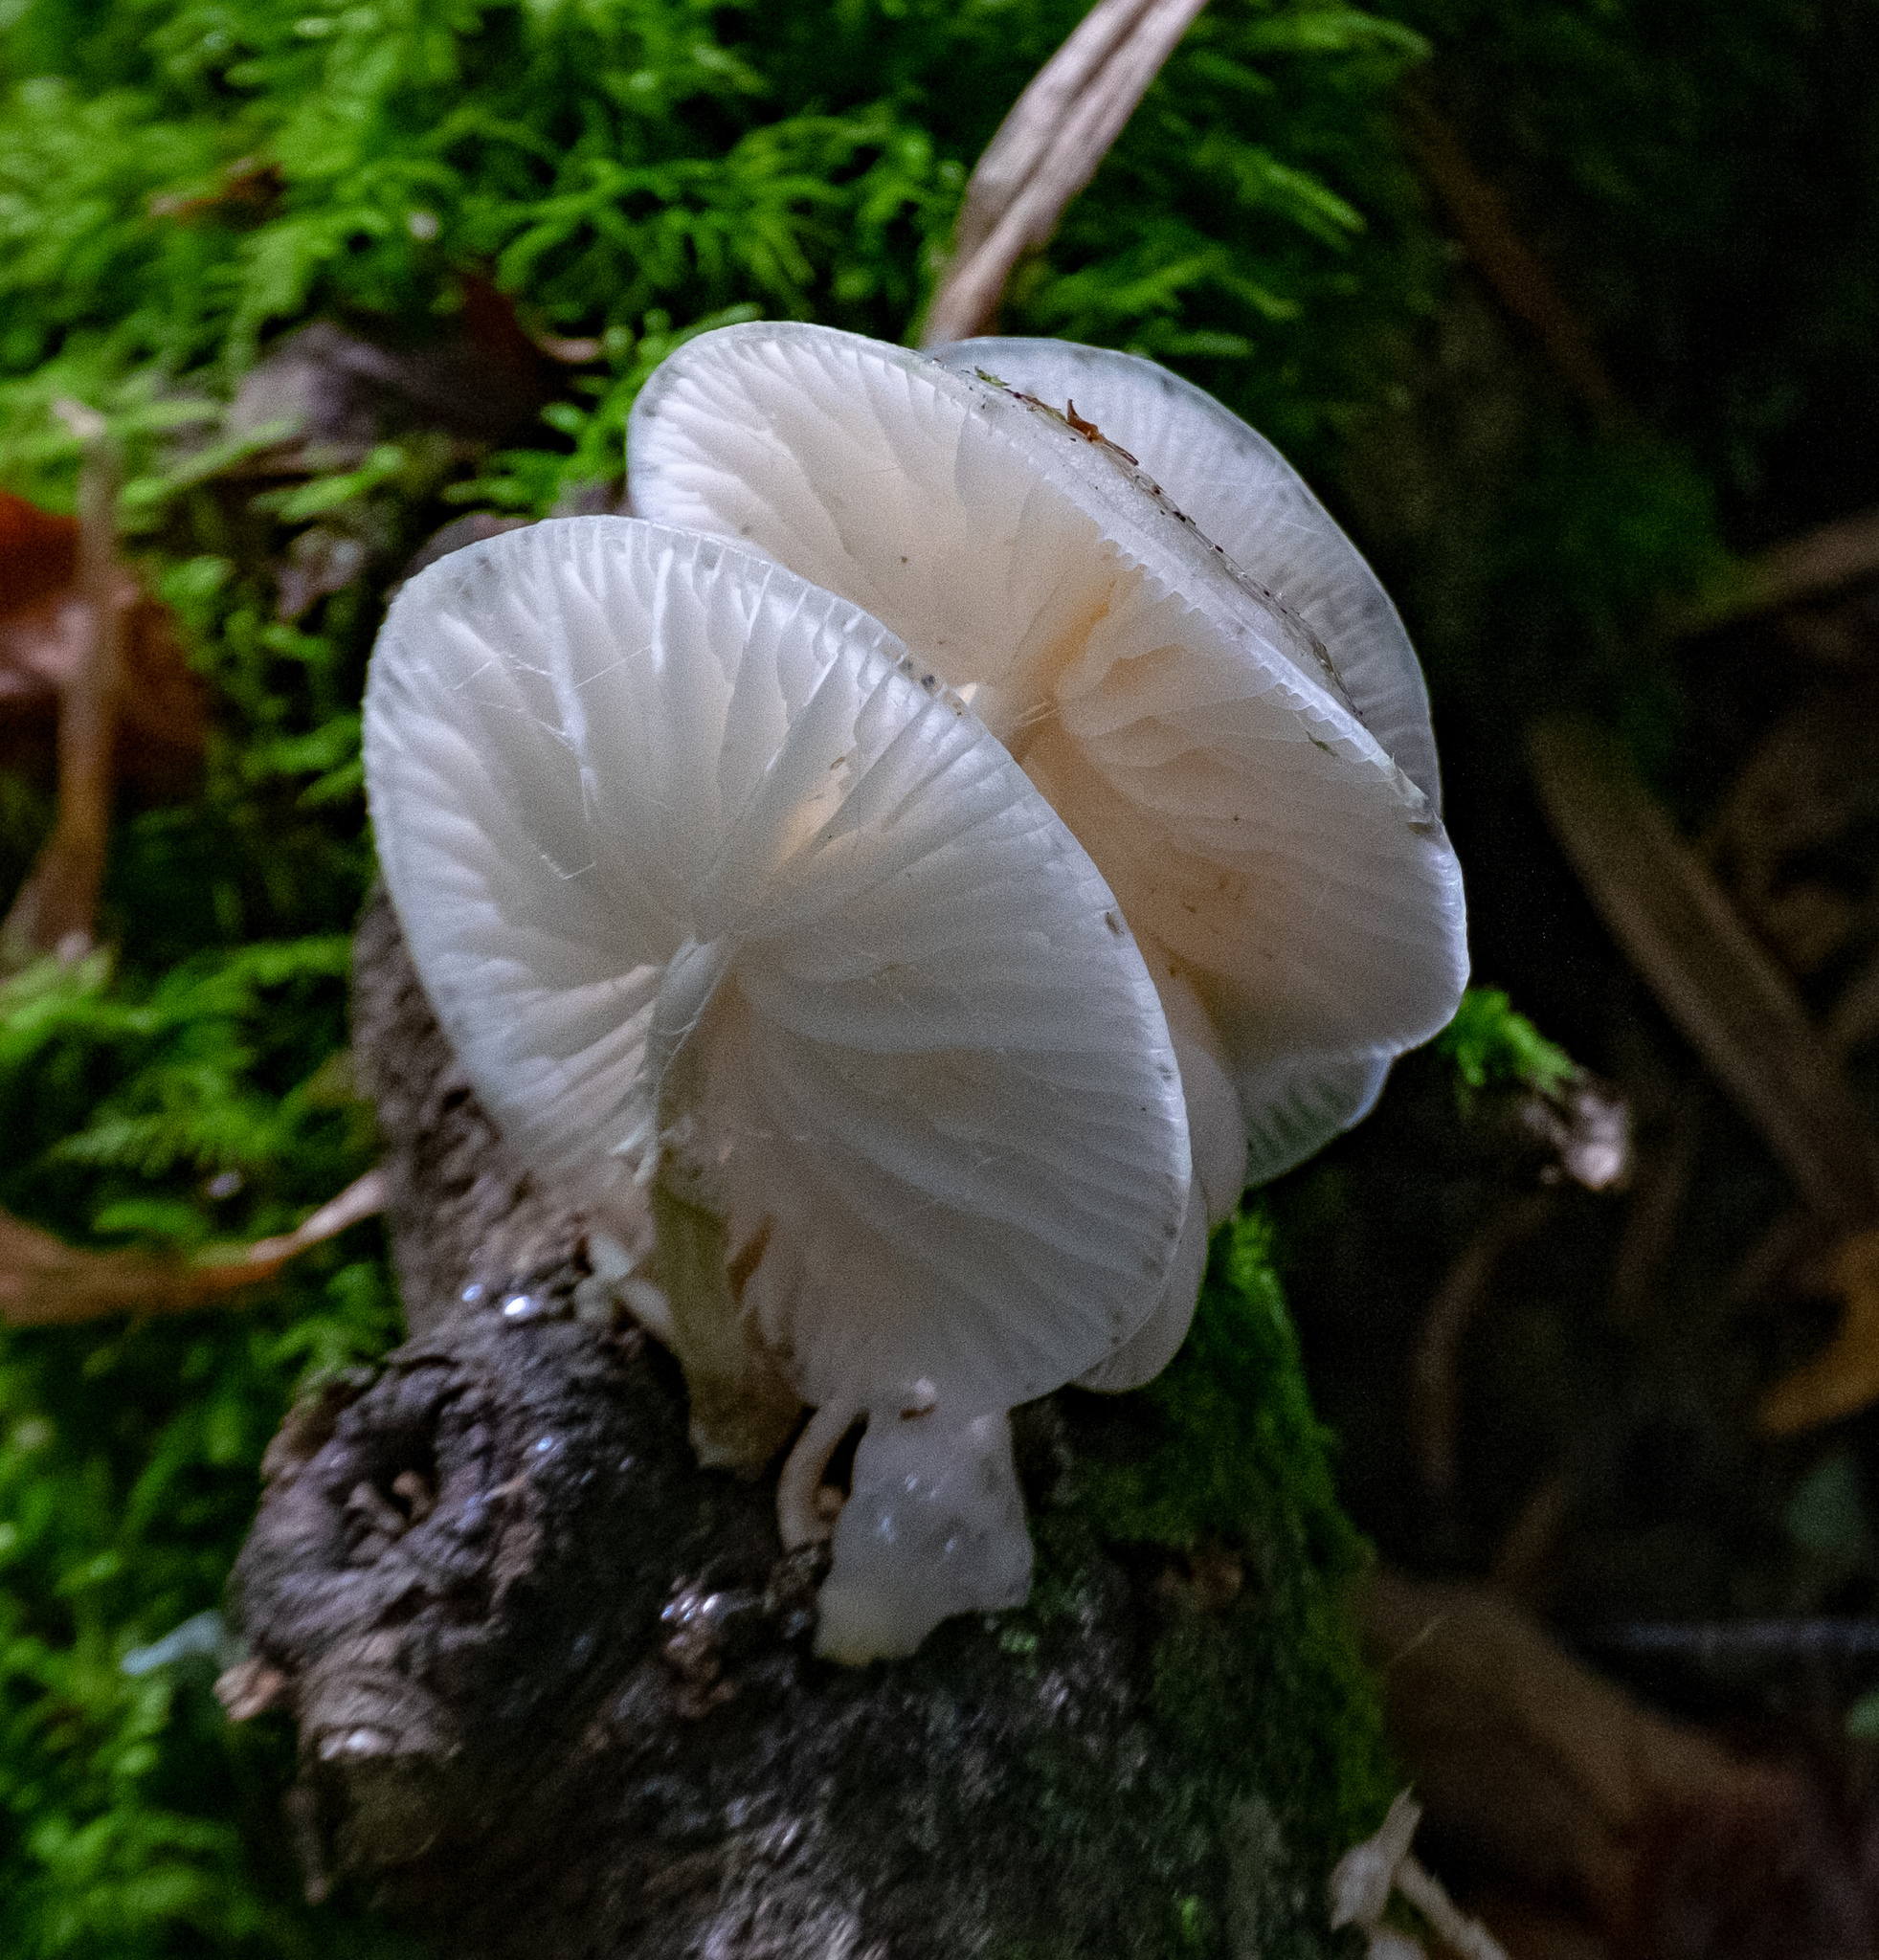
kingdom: Fungi
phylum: Basidiomycota
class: Agaricomycetes
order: Agaricales
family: Physalacriaceae
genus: Mucidula
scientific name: Mucidula mucida
